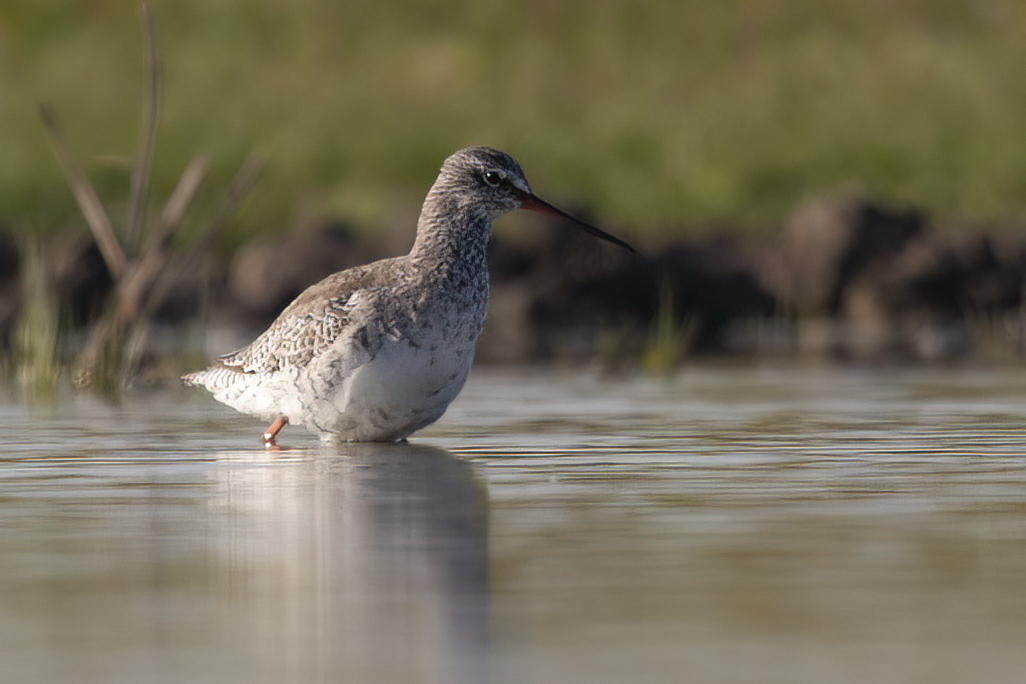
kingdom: Animalia
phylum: Chordata
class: Aves
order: Charadriiformes
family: Scolopacidae
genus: Tringa
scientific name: Tringa erythropus
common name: Spotted redshank
